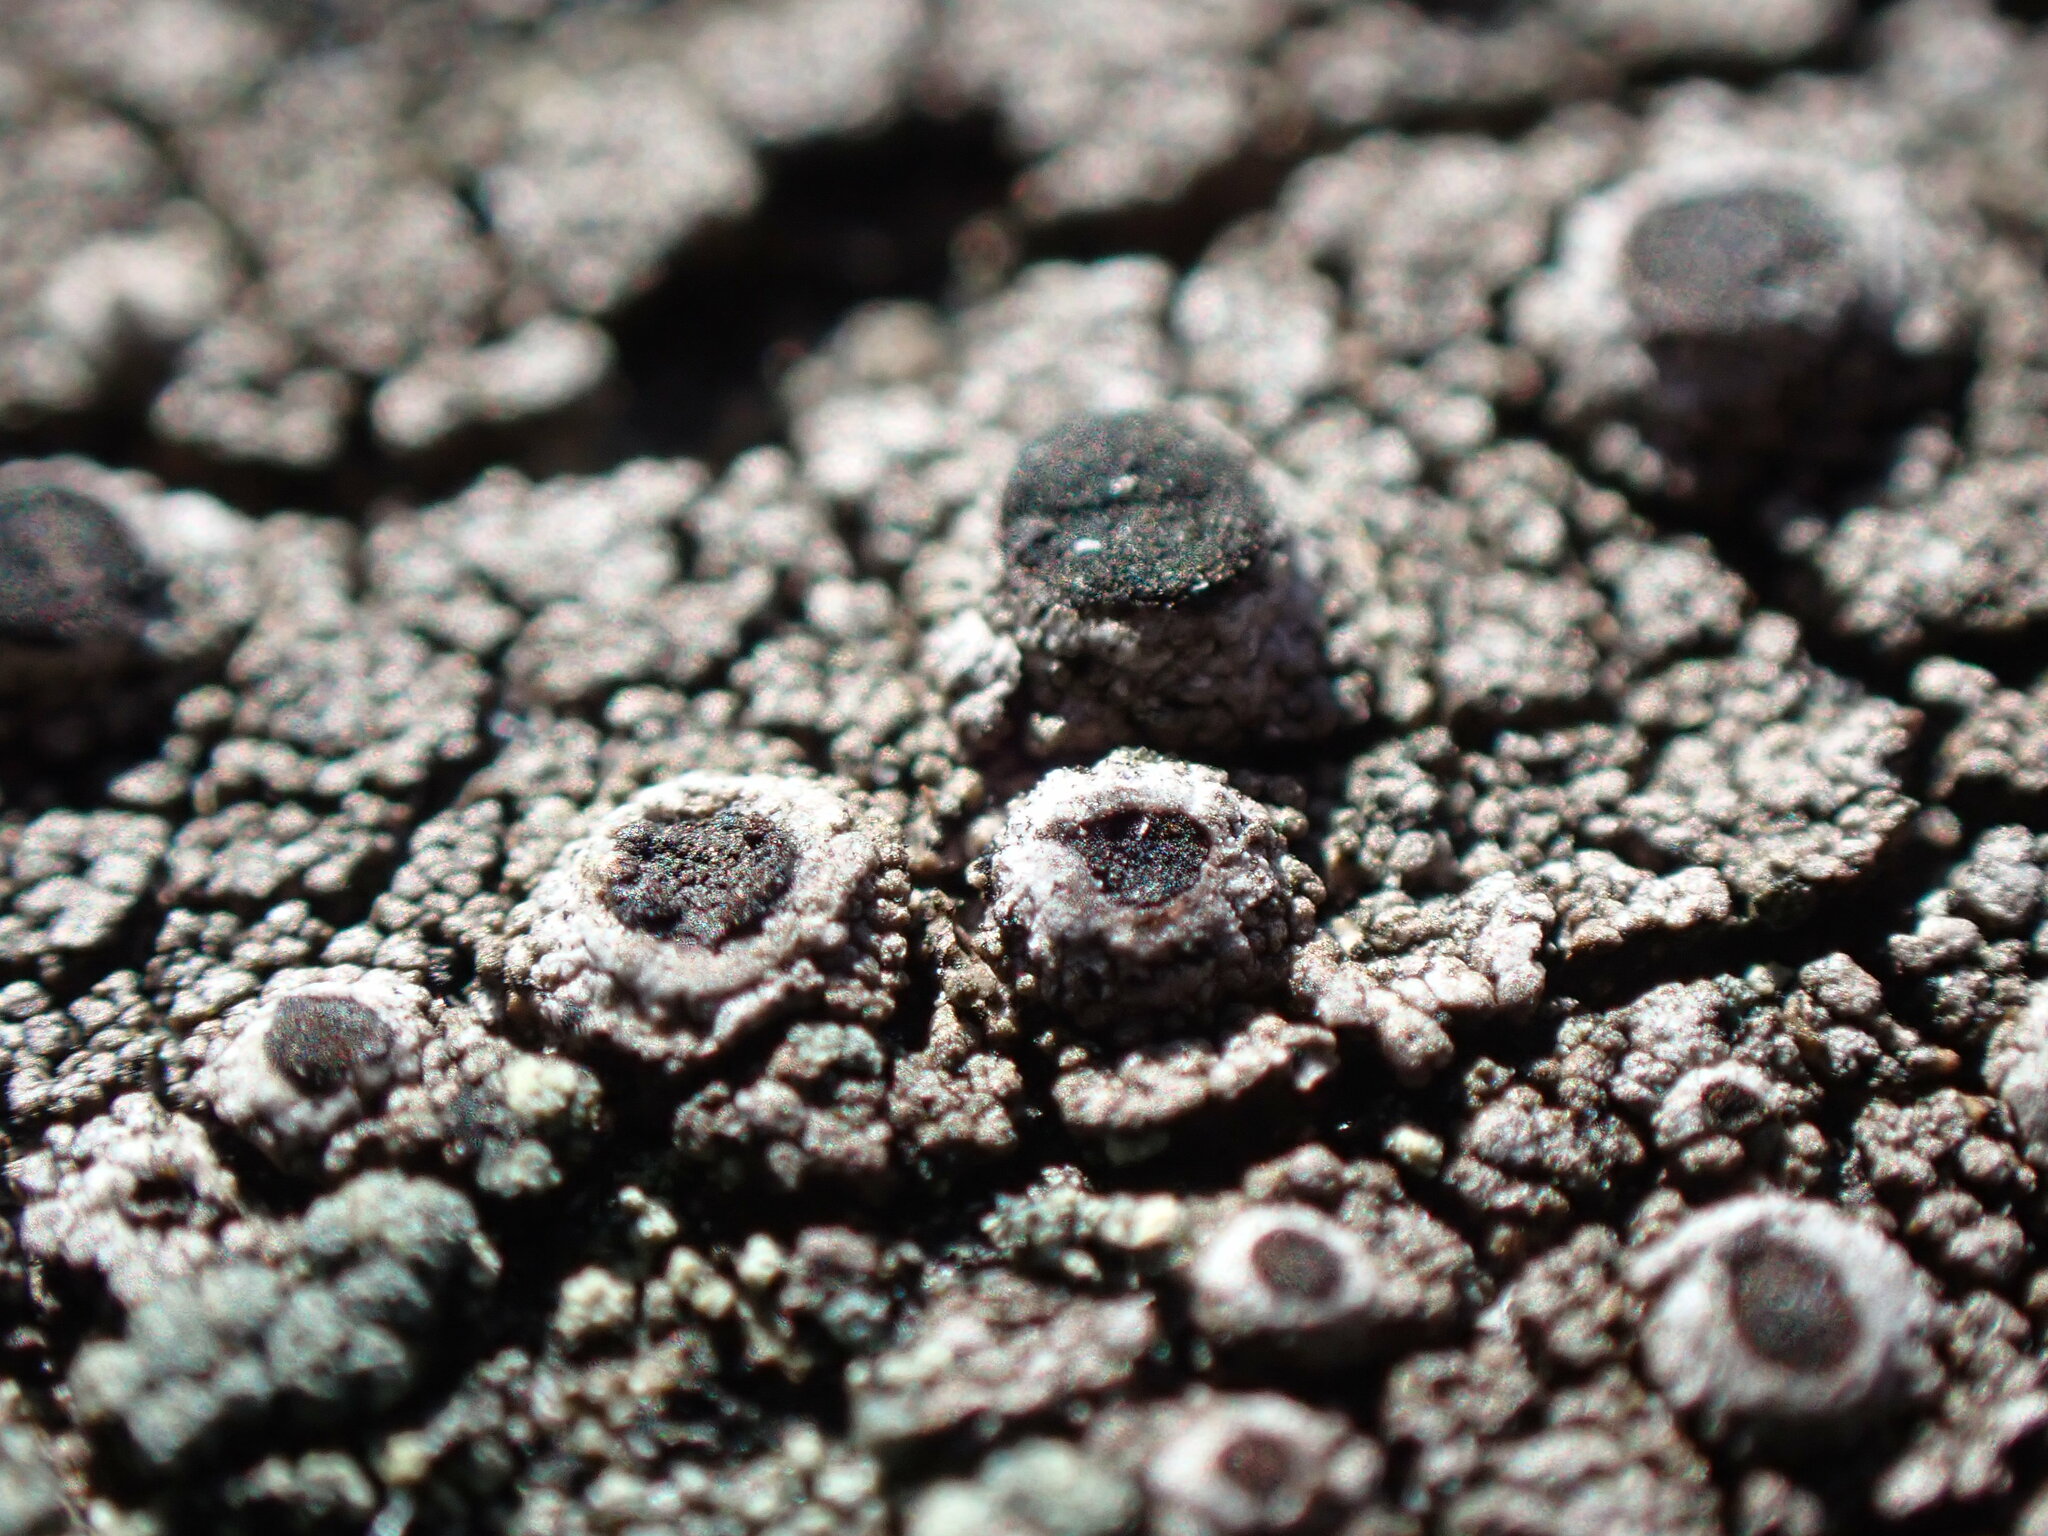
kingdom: Fungi
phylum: Ascomycota
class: Lecanoromycetes
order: Caliciales
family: Caliciaceae
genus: Pseudothelomma
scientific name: Pseudothelomma occidentale
